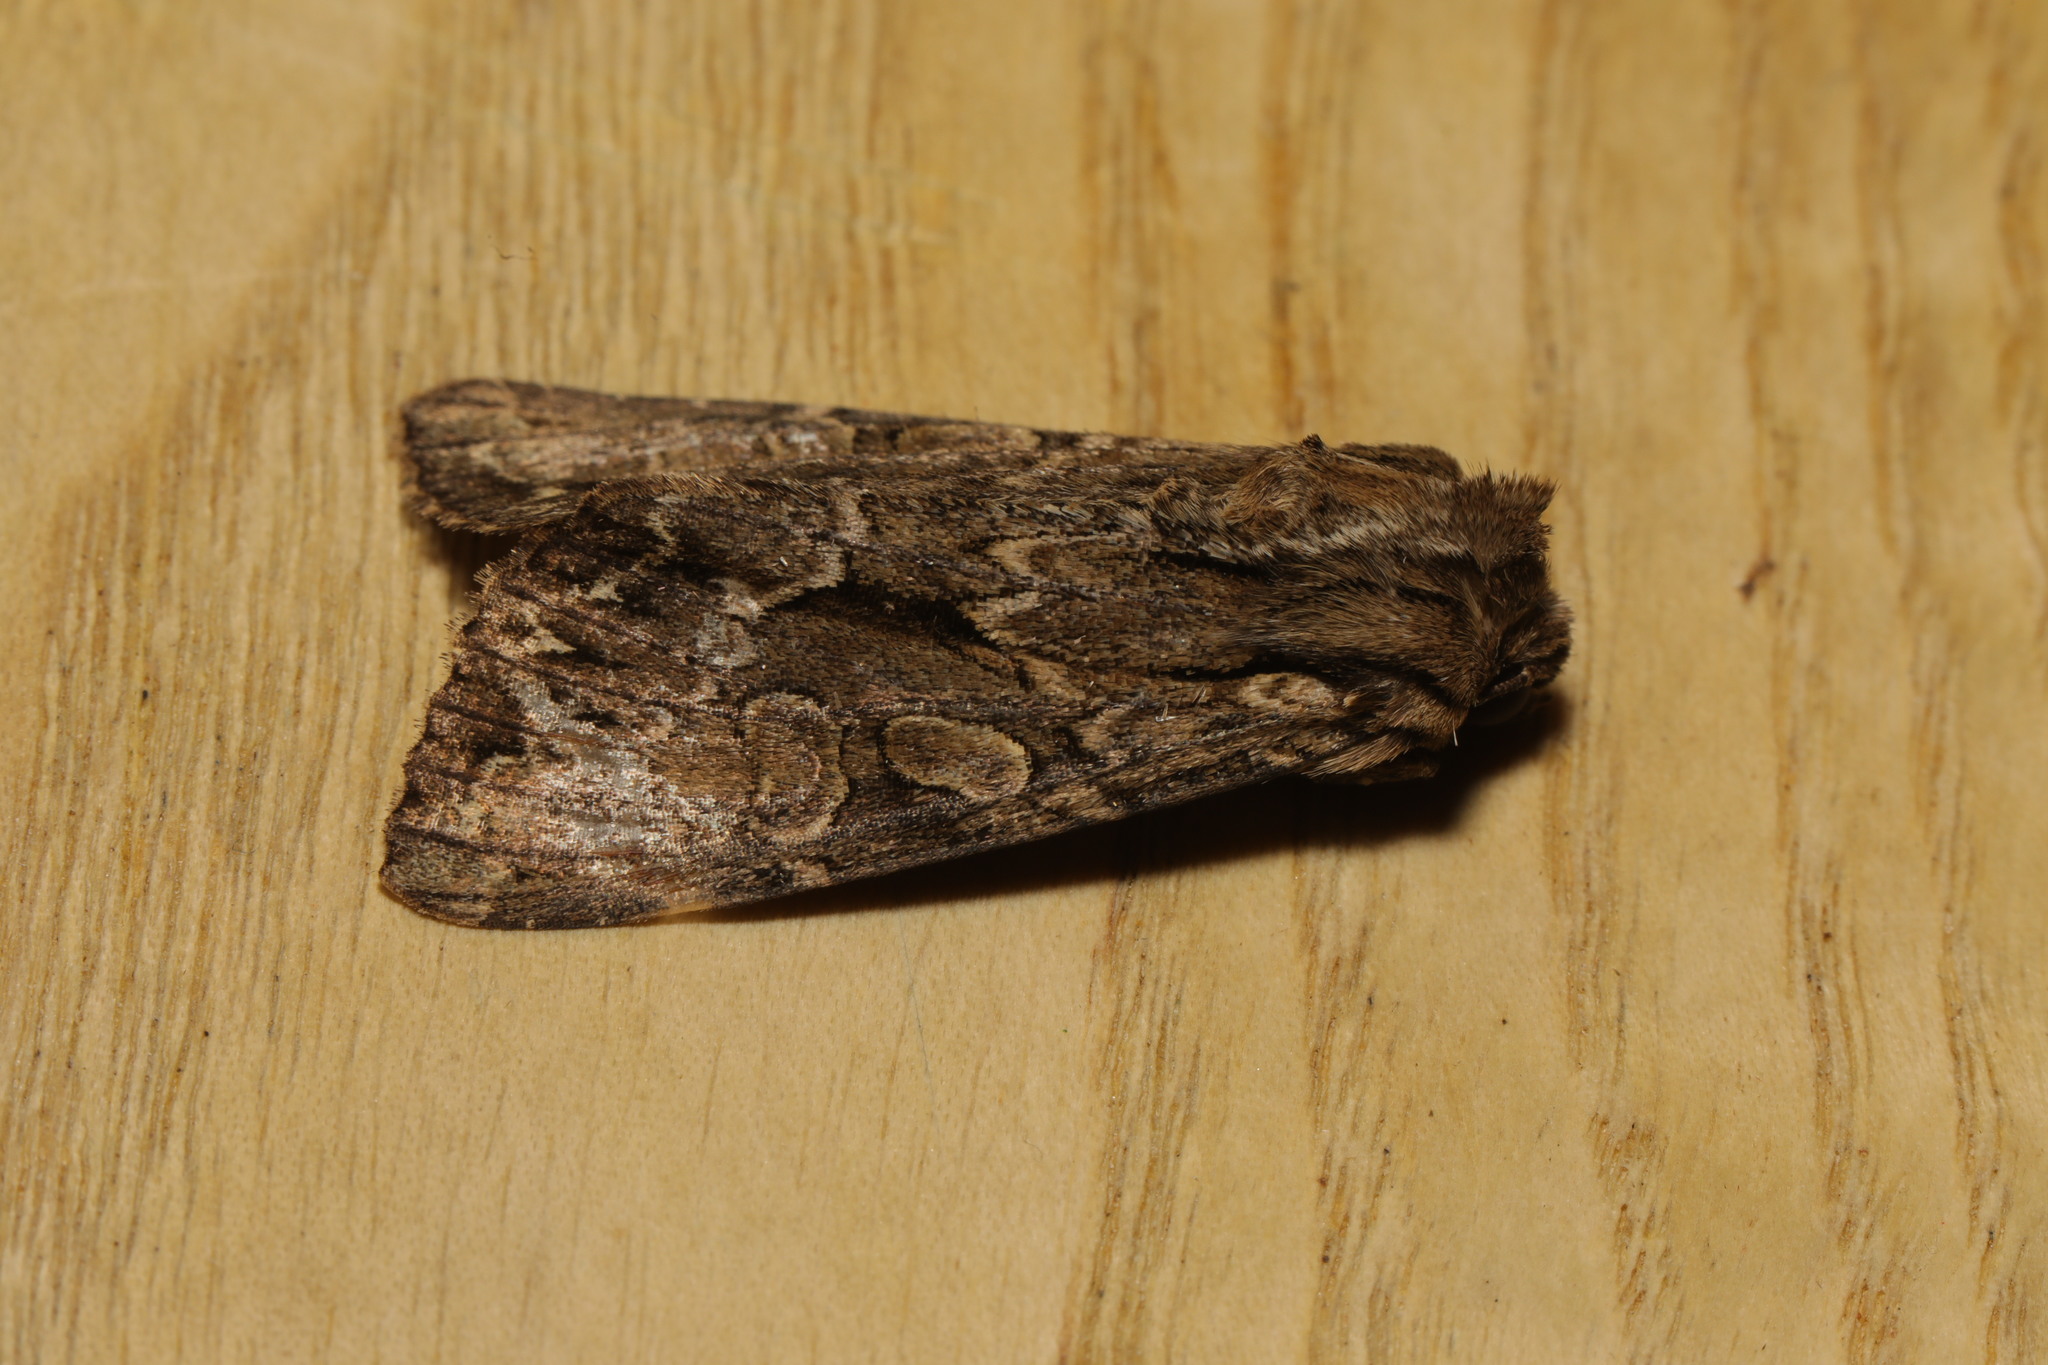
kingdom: Animalia
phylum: Arthropoda
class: Insecta
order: Lepidoptera
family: Noctuidae
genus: Apamea
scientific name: Apamea monoglypha
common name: Dark arches
